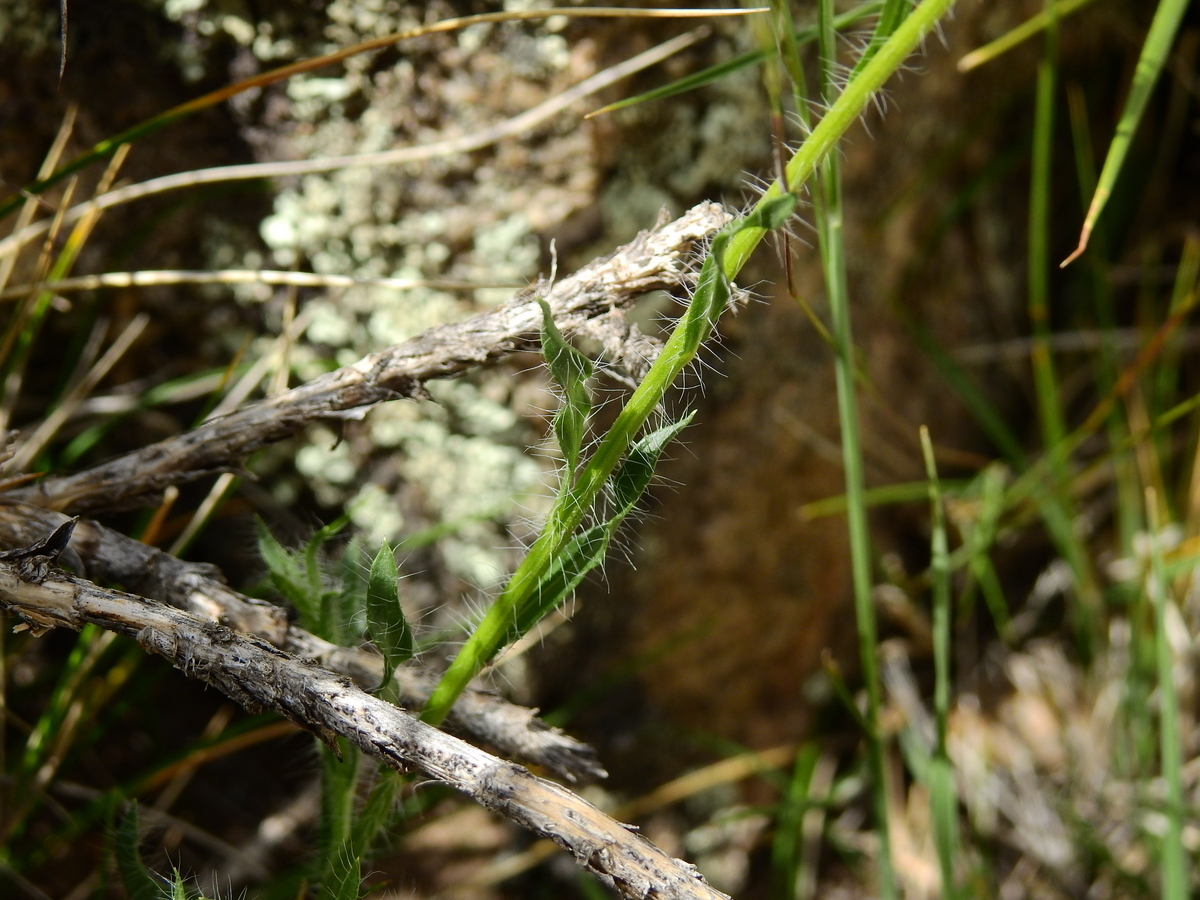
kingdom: Plantae
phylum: Tracheophyta
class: Magnoliopsida
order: Asterales
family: Asteraceae
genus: Hysterionica
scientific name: Hysterionica jasionoides
